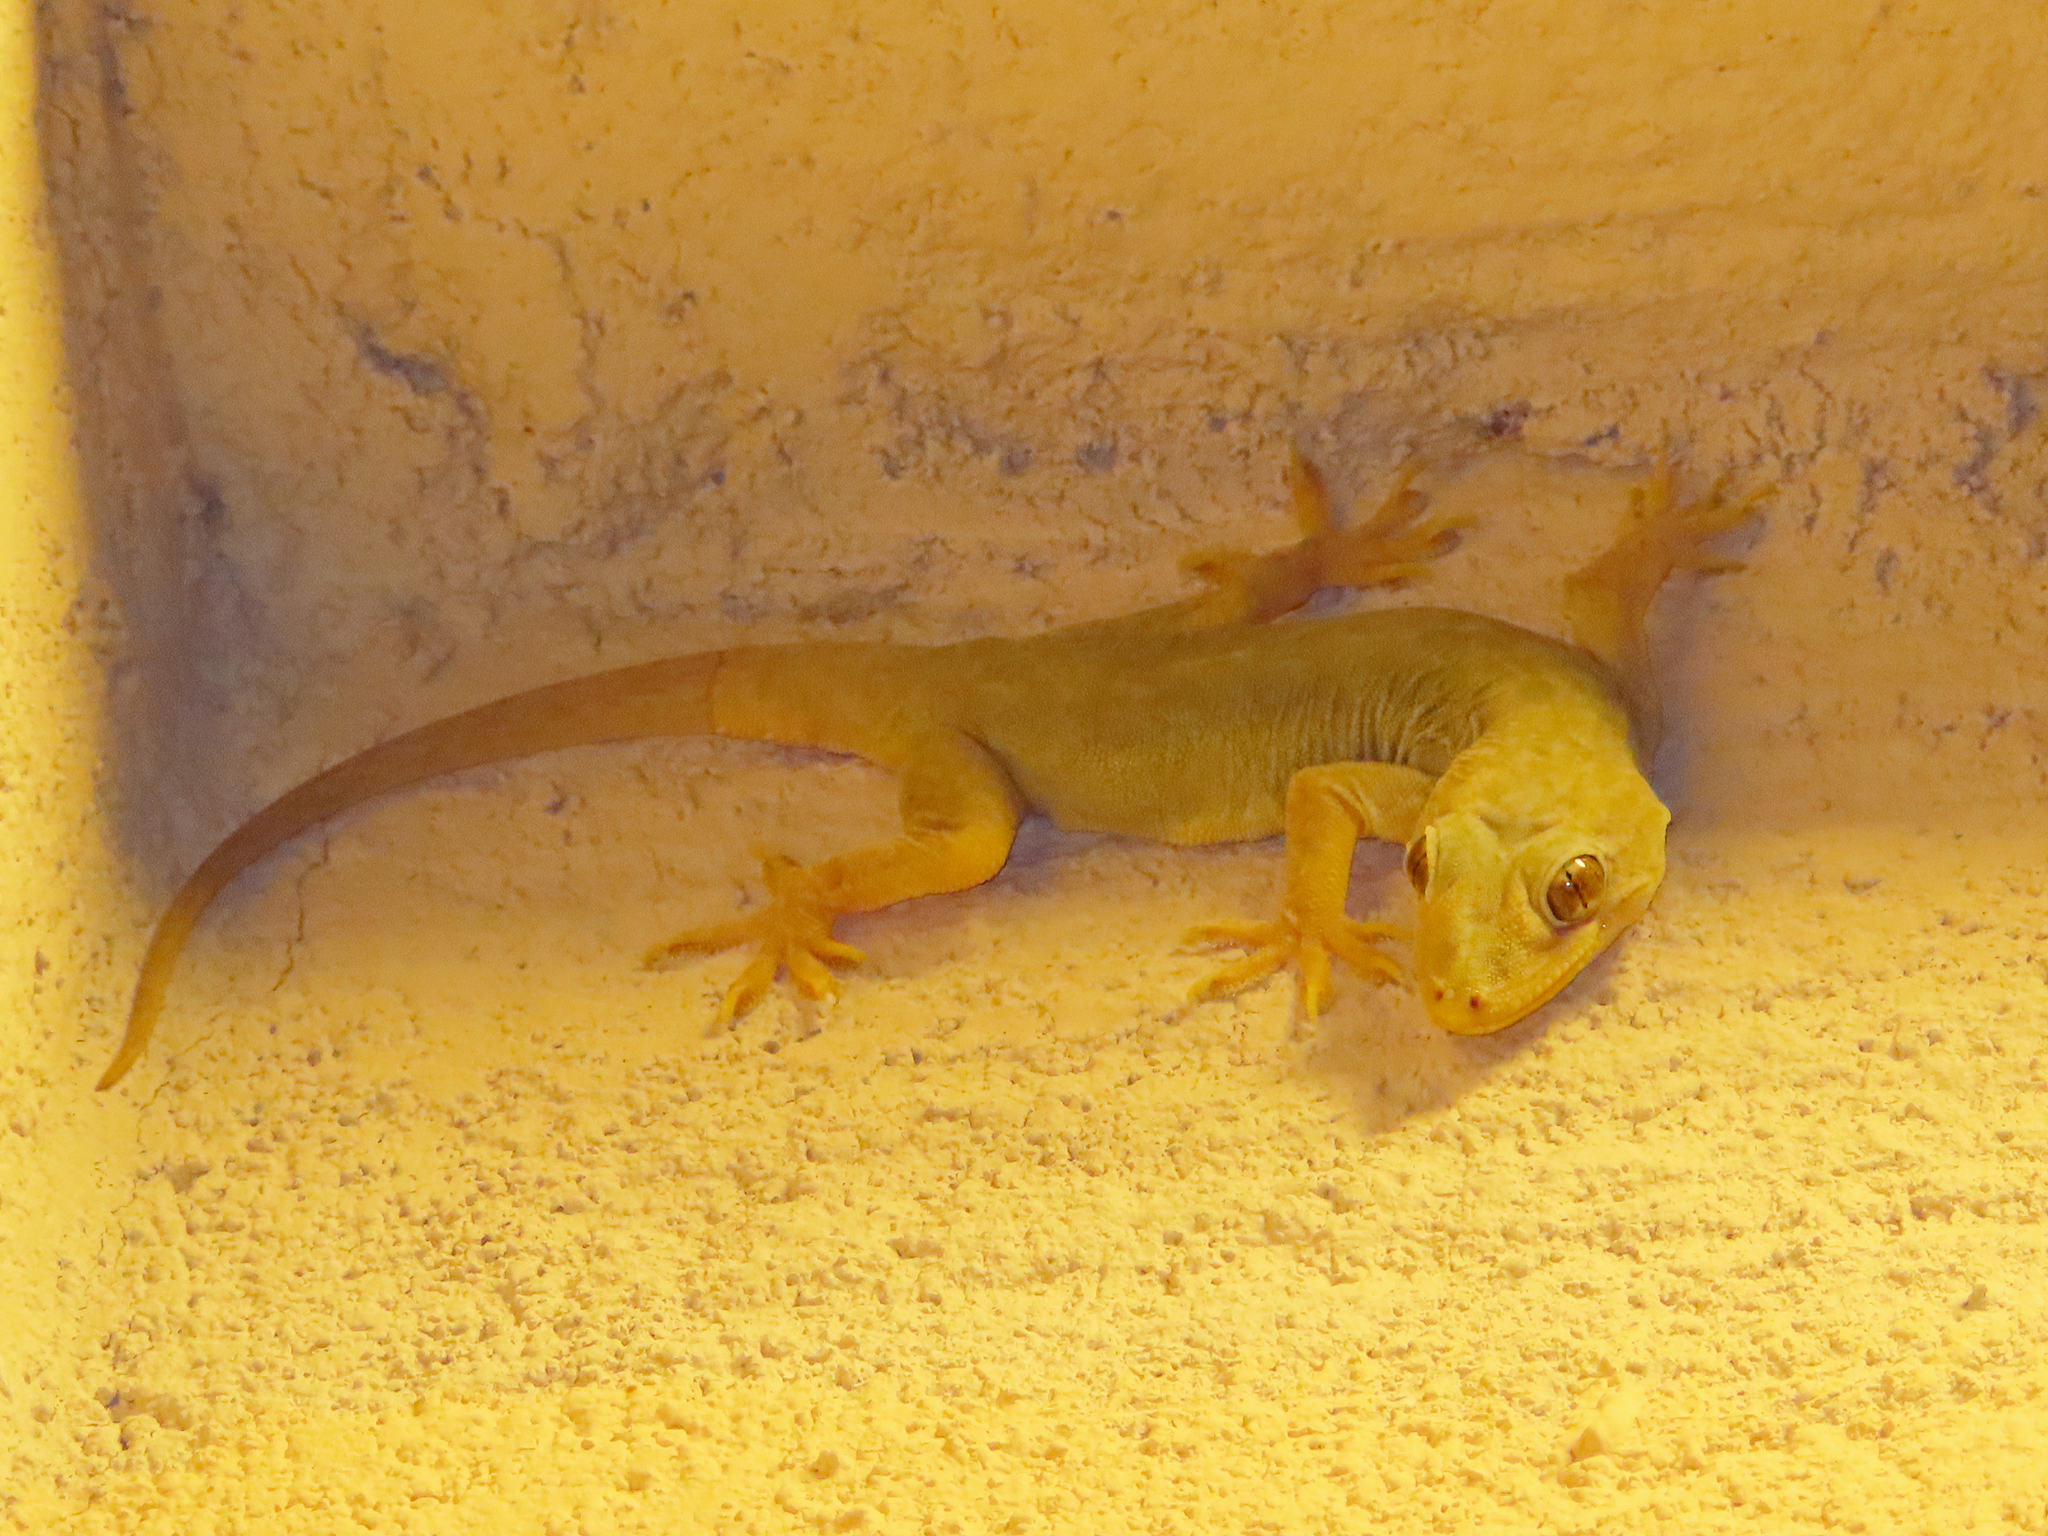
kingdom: Animalia
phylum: Chordata
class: Squamata
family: Gekkonidae
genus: Hemidactylus
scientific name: Hemidactylus flaviviridis
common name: Northern house gecko
